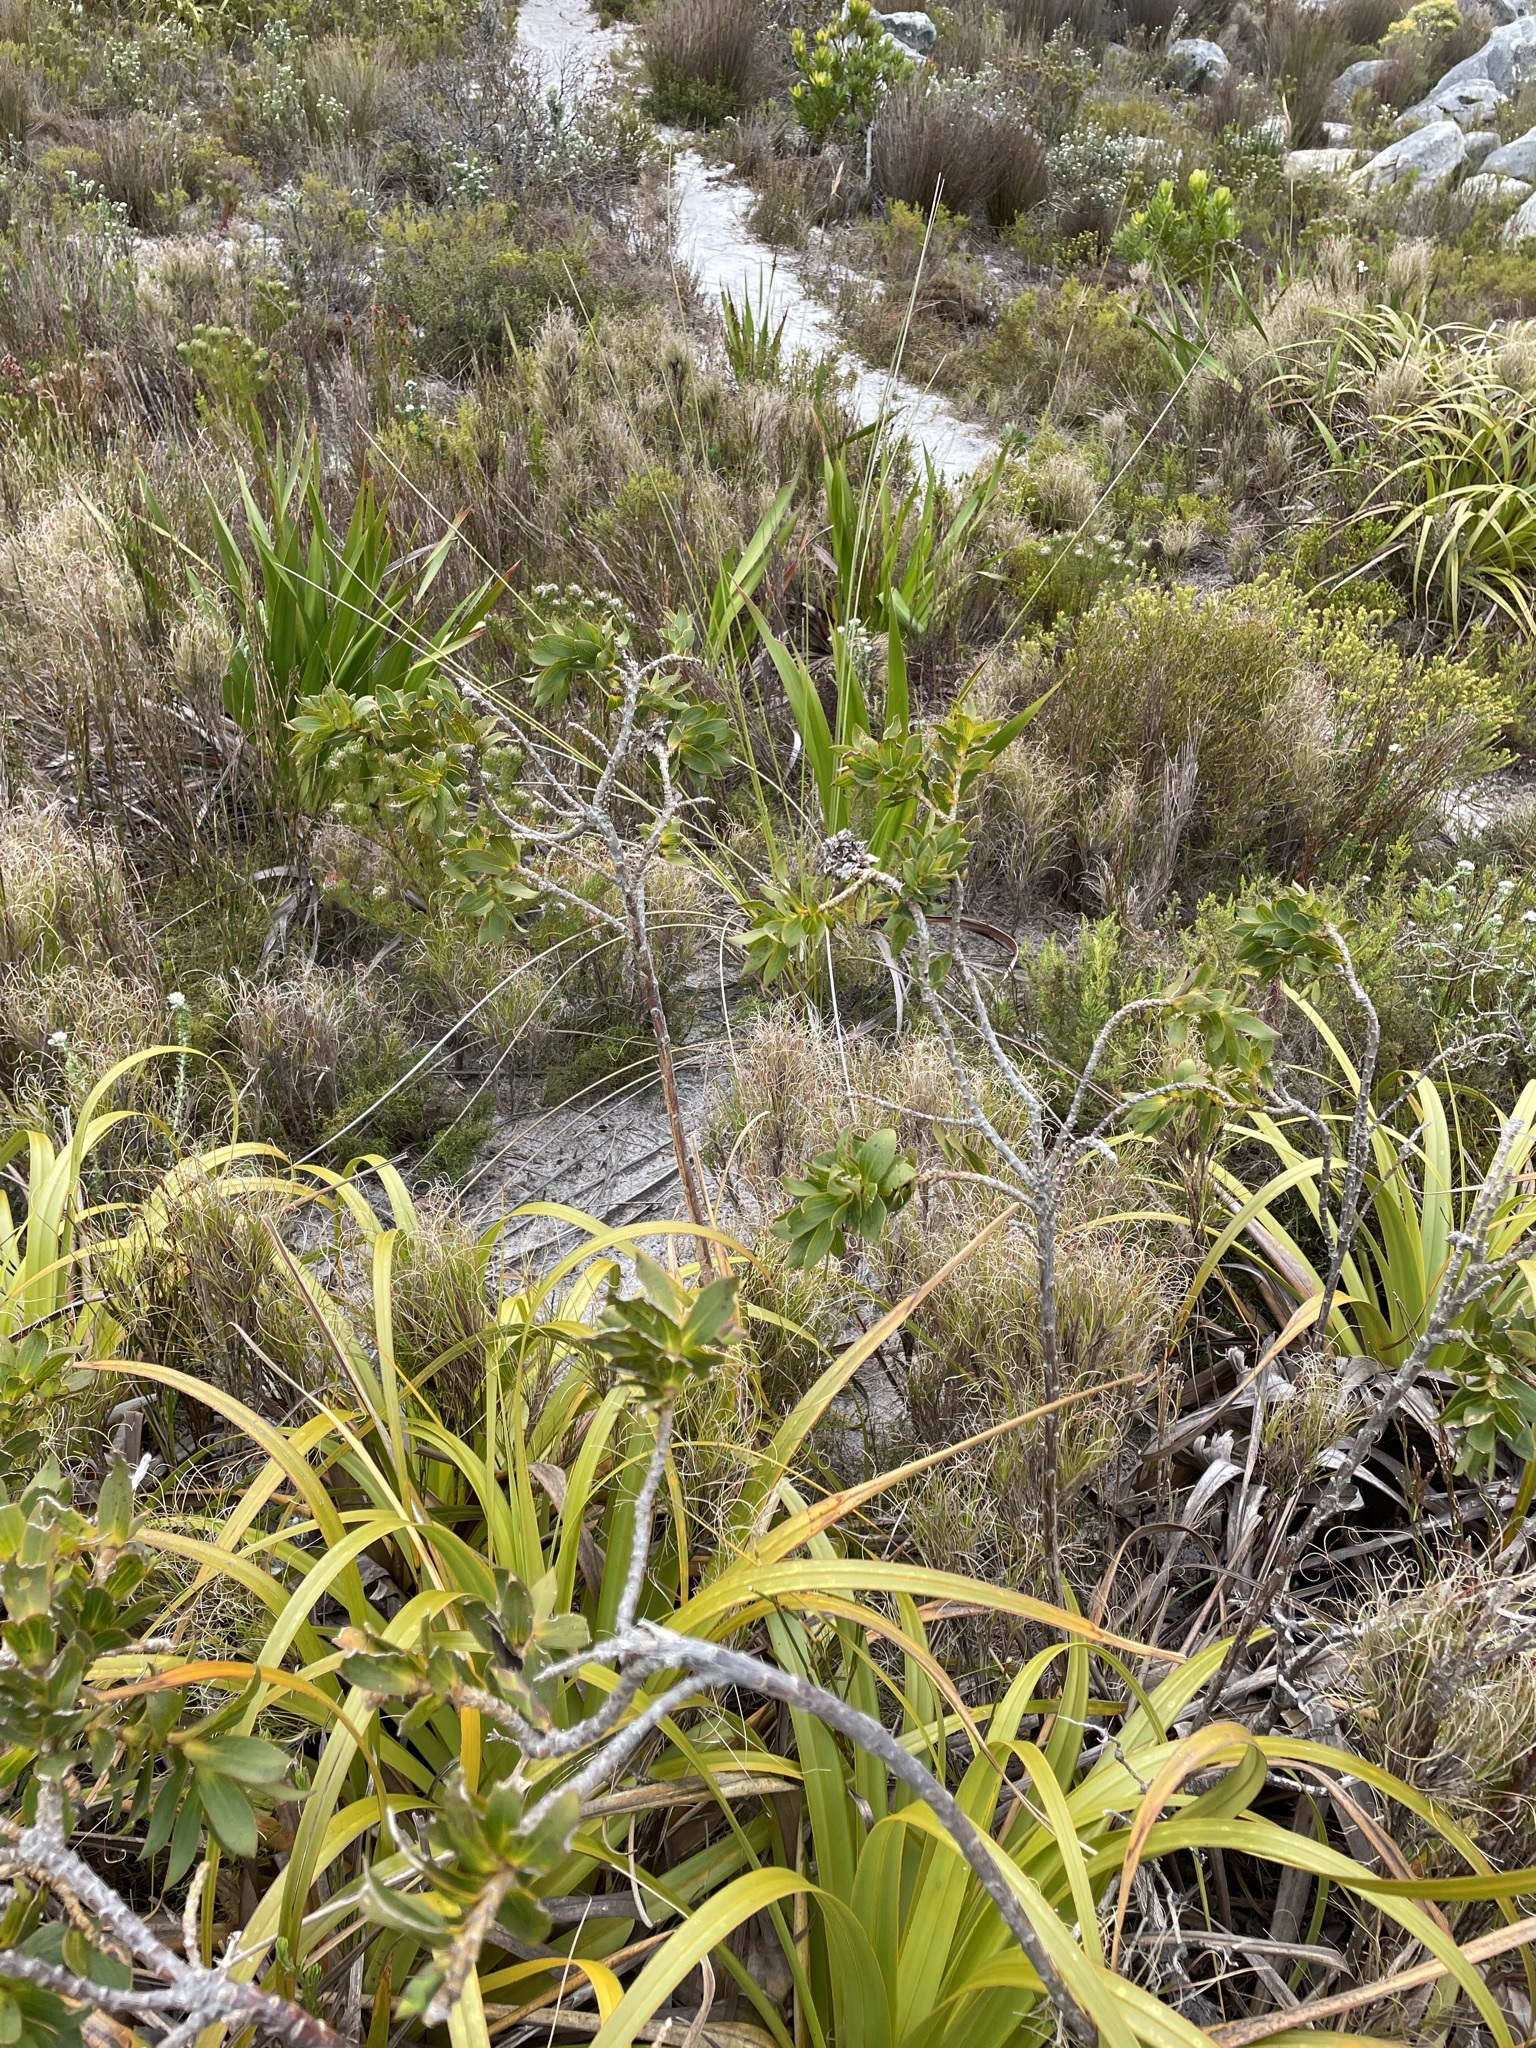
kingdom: Plantae
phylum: Tracheophyta
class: Magnoliopsida
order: Fabales
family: Fabaceae
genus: Liparia
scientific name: Liparia splendens
